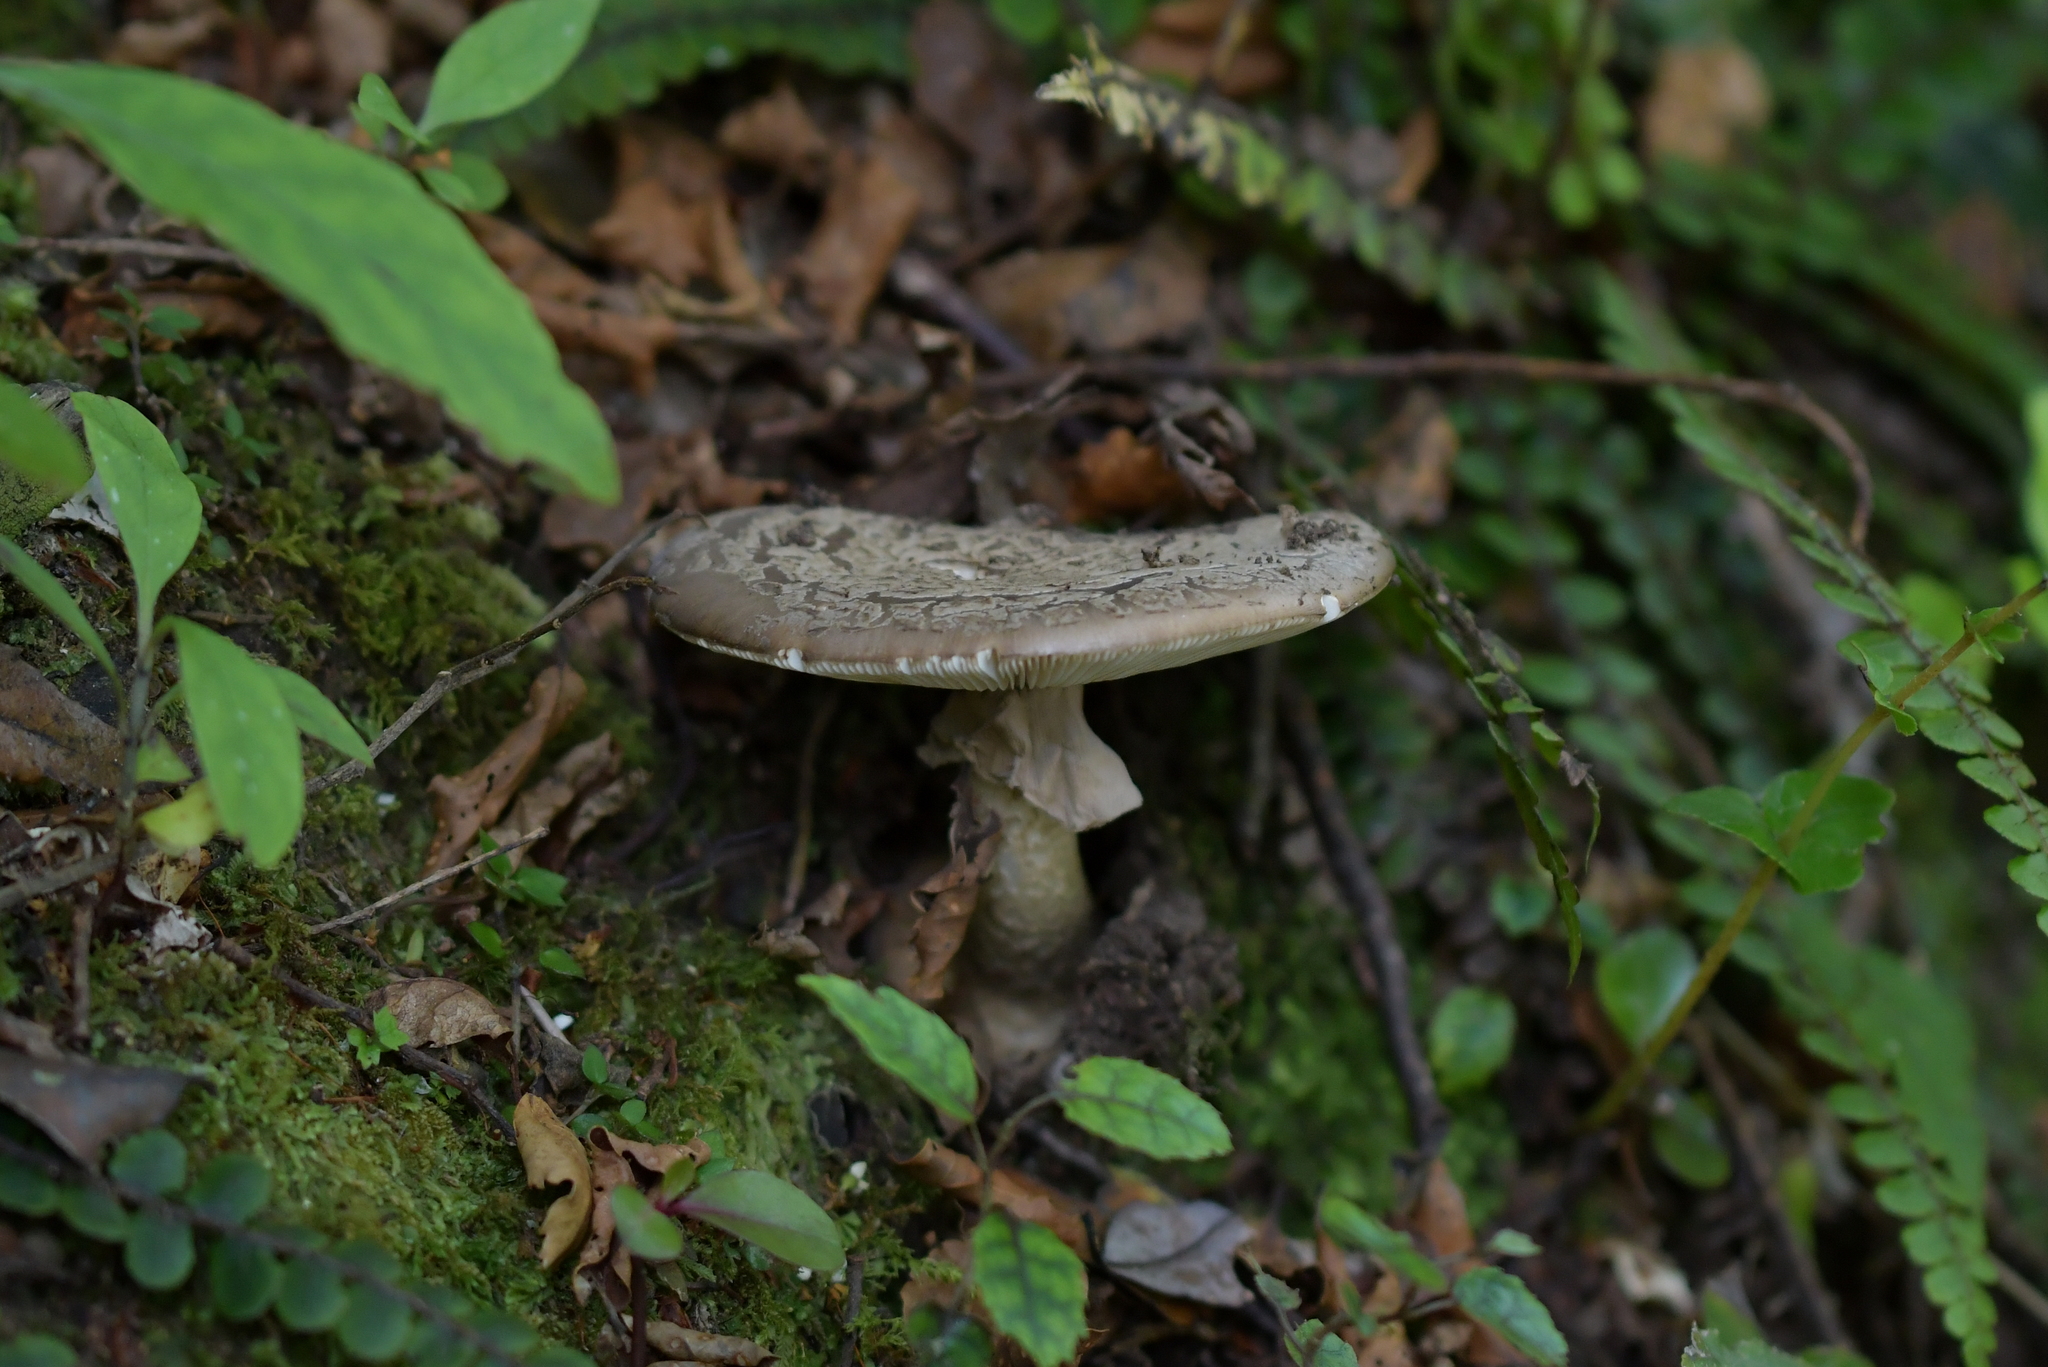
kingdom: Fungi
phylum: Basidiomycota
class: Agaricomycetes
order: Agaricales
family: Amanitaceae
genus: Amanita
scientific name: Amanita nothofagi
